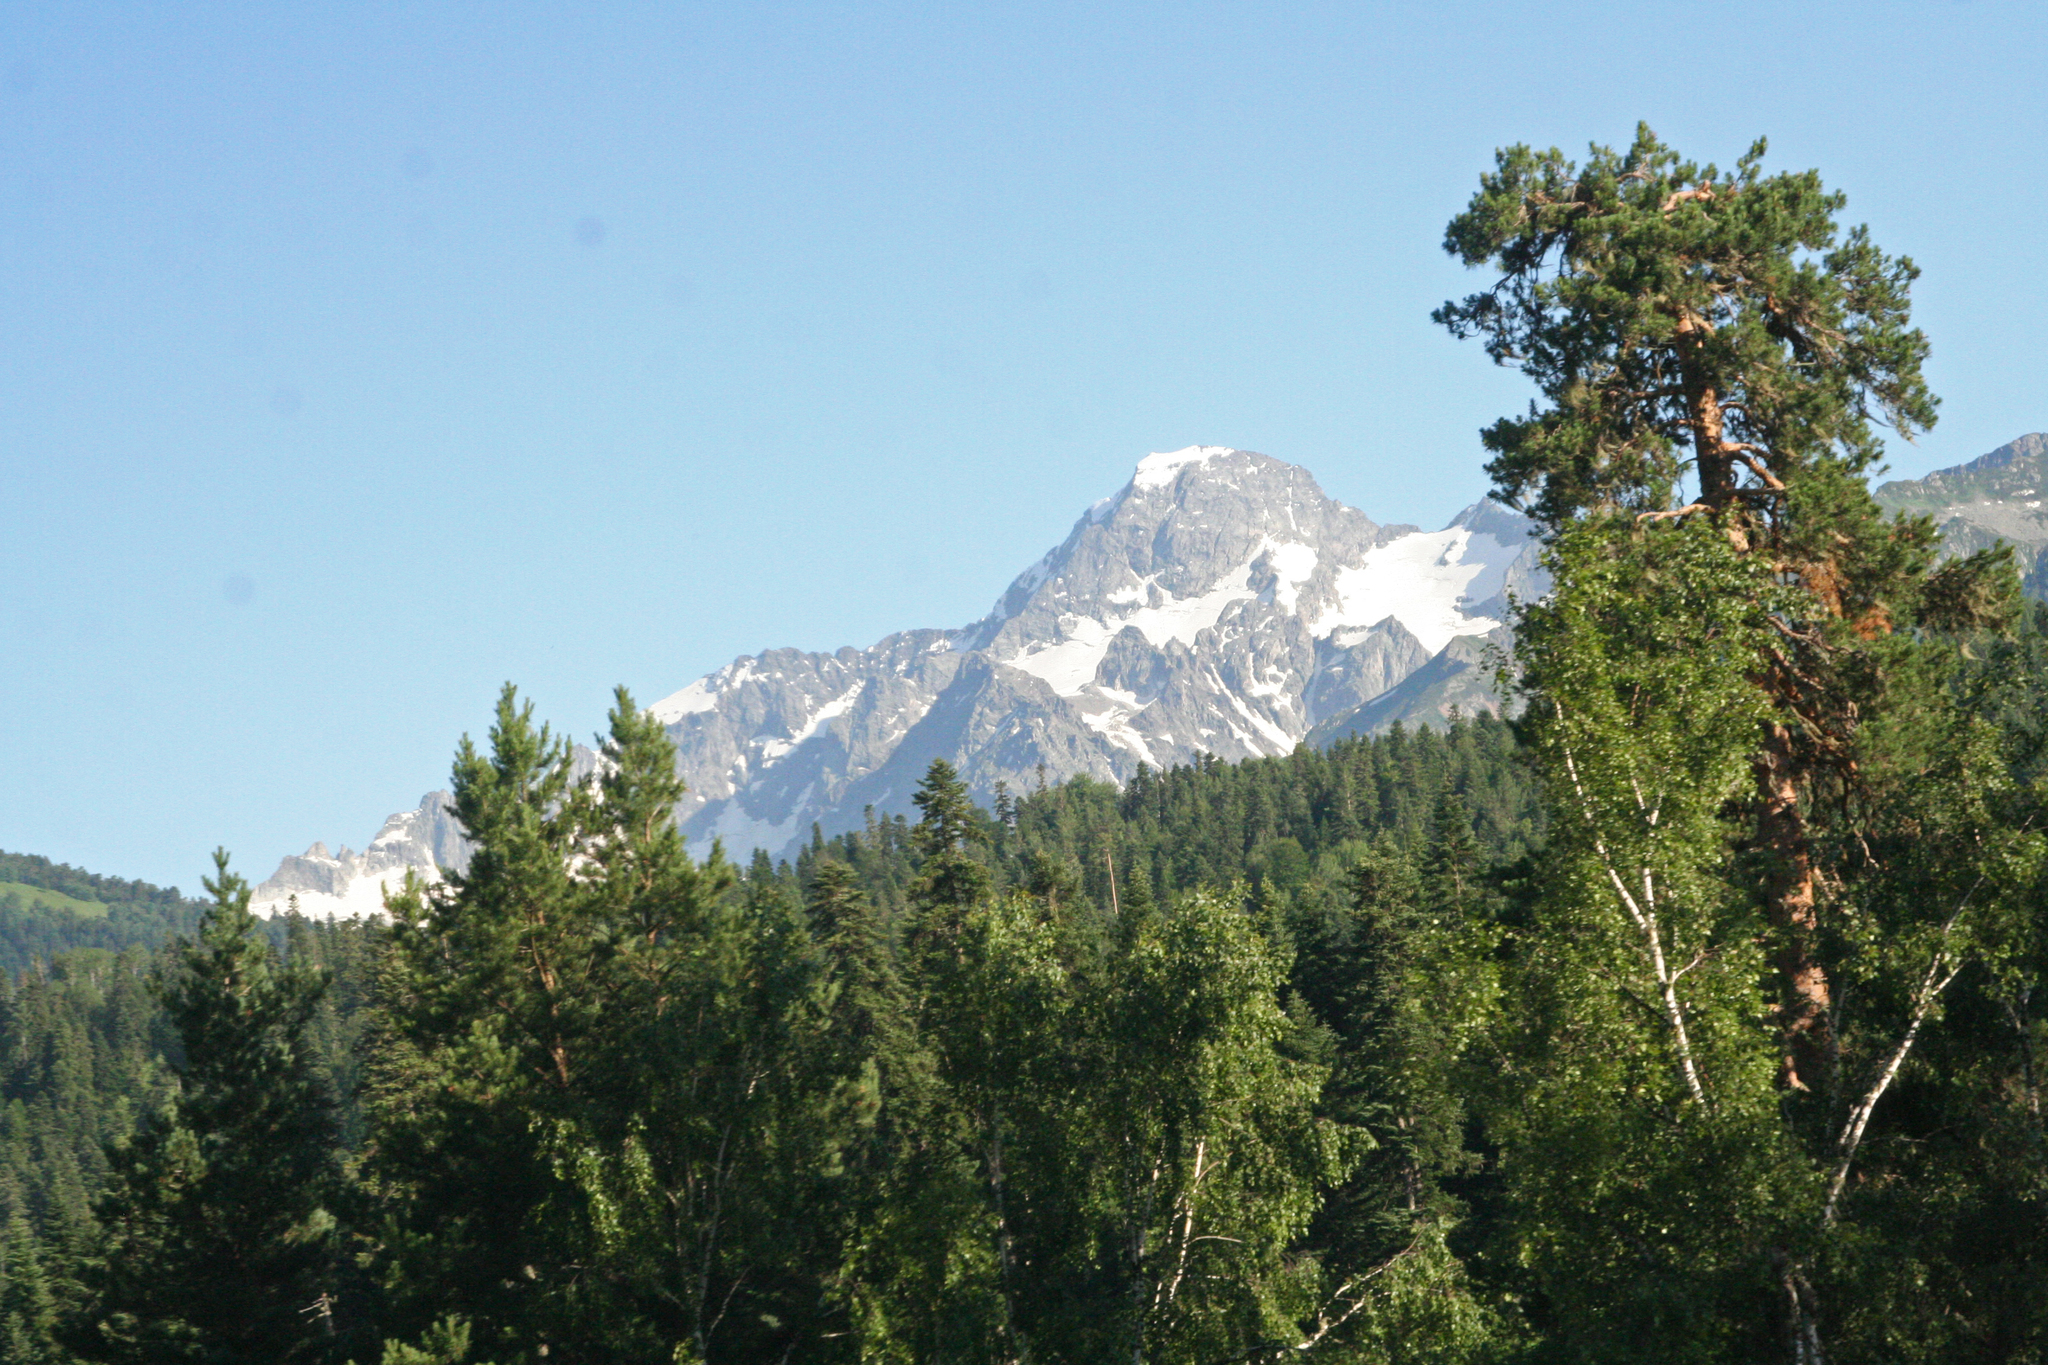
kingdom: Plantae
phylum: Tracheophyta
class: Pinopsida
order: Pinales
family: Pinaceae
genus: Pinus
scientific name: Pinus sylvestris
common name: Scots pine
